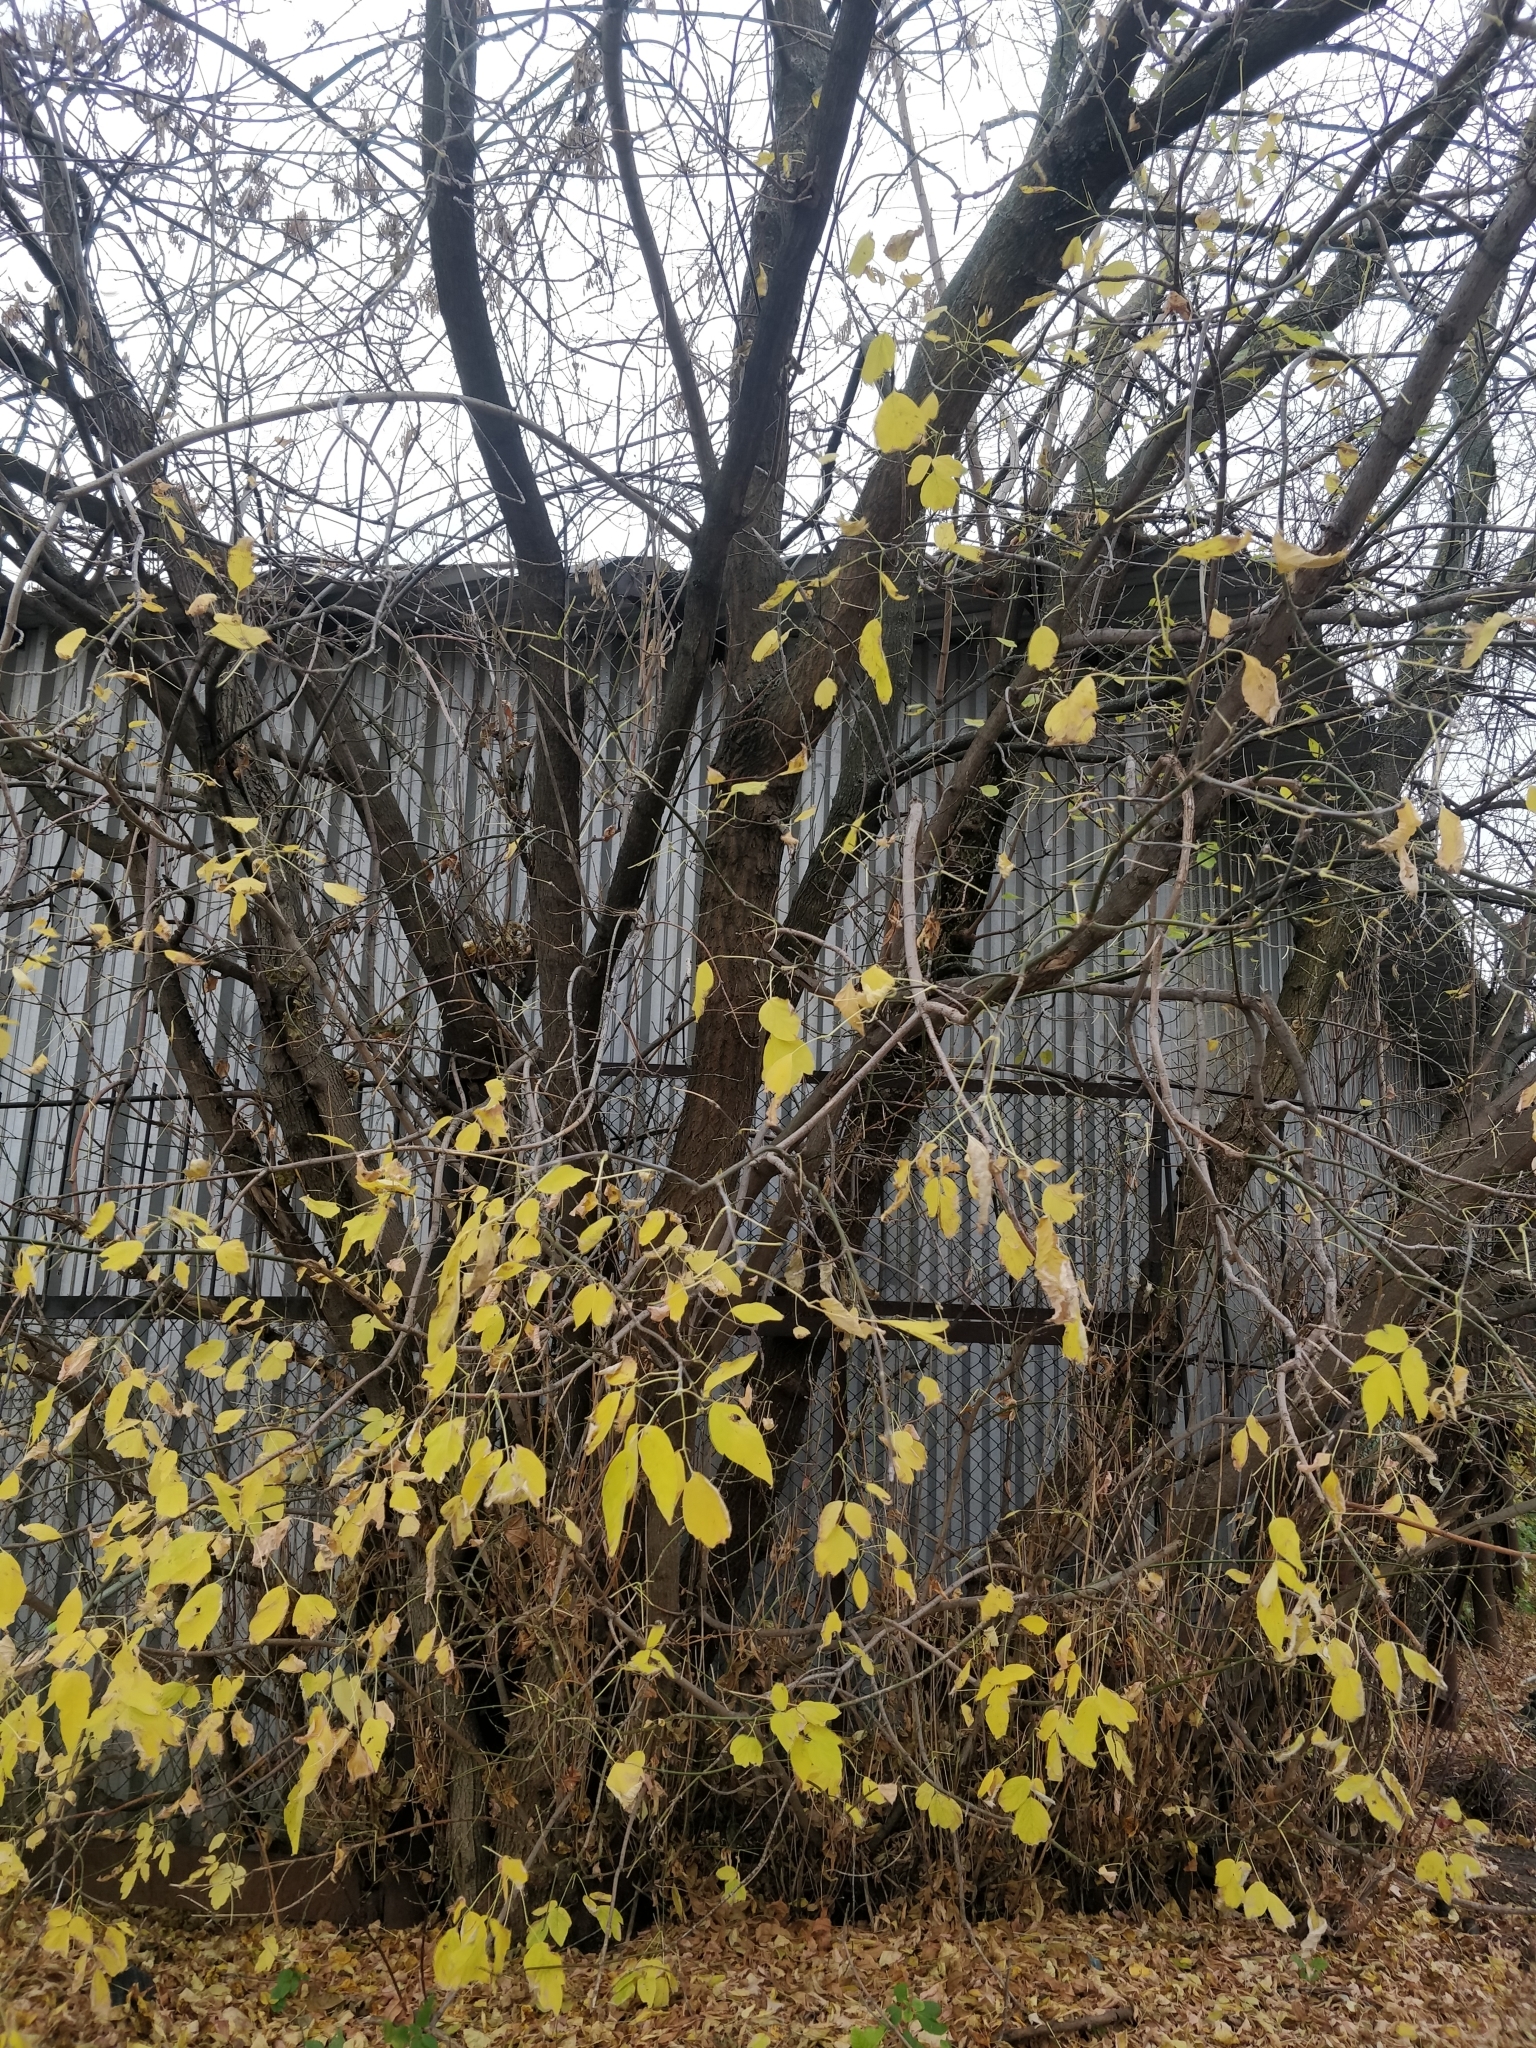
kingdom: Plantae
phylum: Tracheophyta
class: Magnoliopsida
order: Sapindales
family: Sapindaceae
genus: Acer
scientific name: Acer negundo
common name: Ashleaf maple
